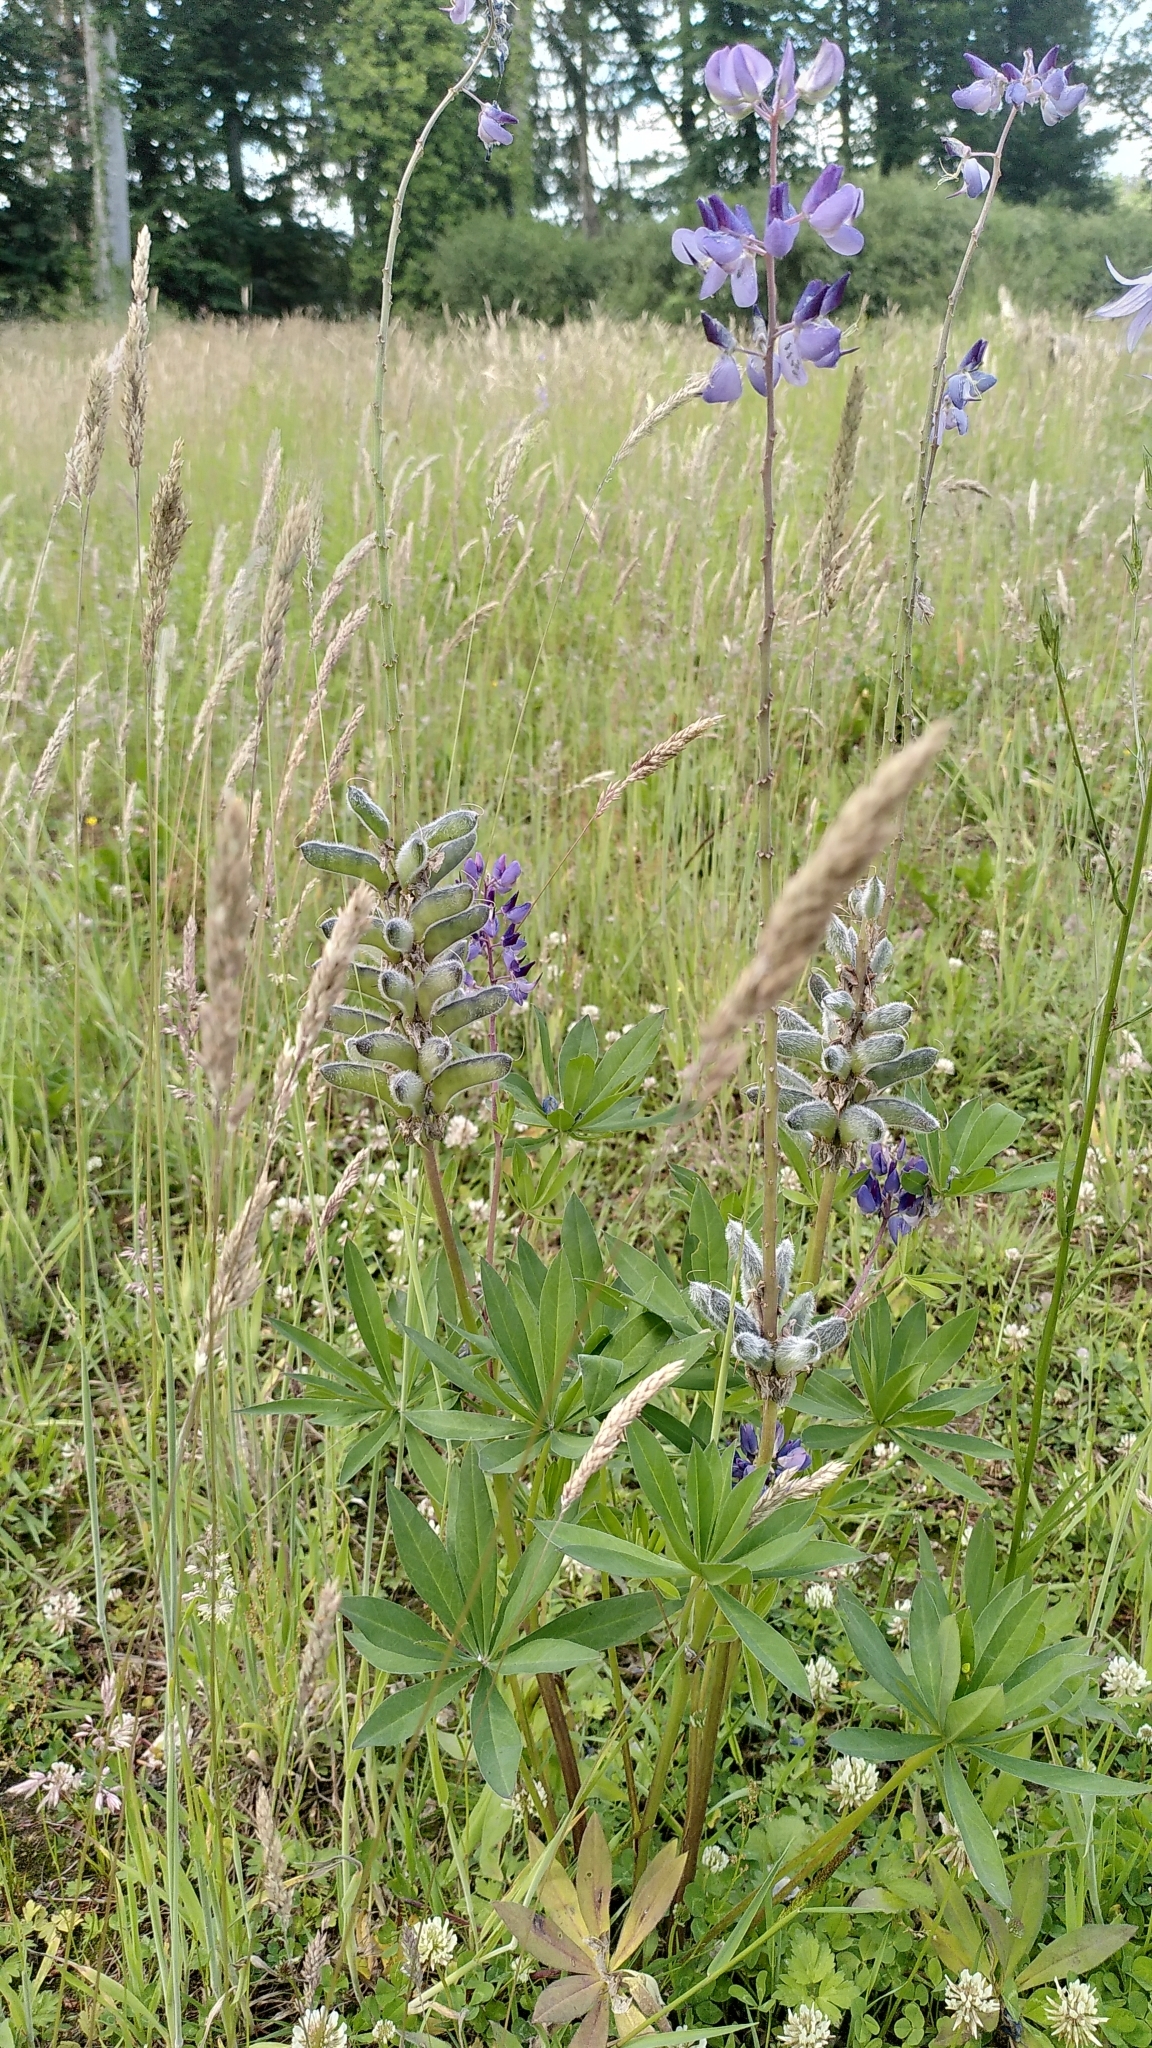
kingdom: Plantae
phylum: Tracheophyta
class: Magnoliopsida
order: Fabales
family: Fabaceae
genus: Lupinus
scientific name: Lupinus polyphyllus
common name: Garden lupin
